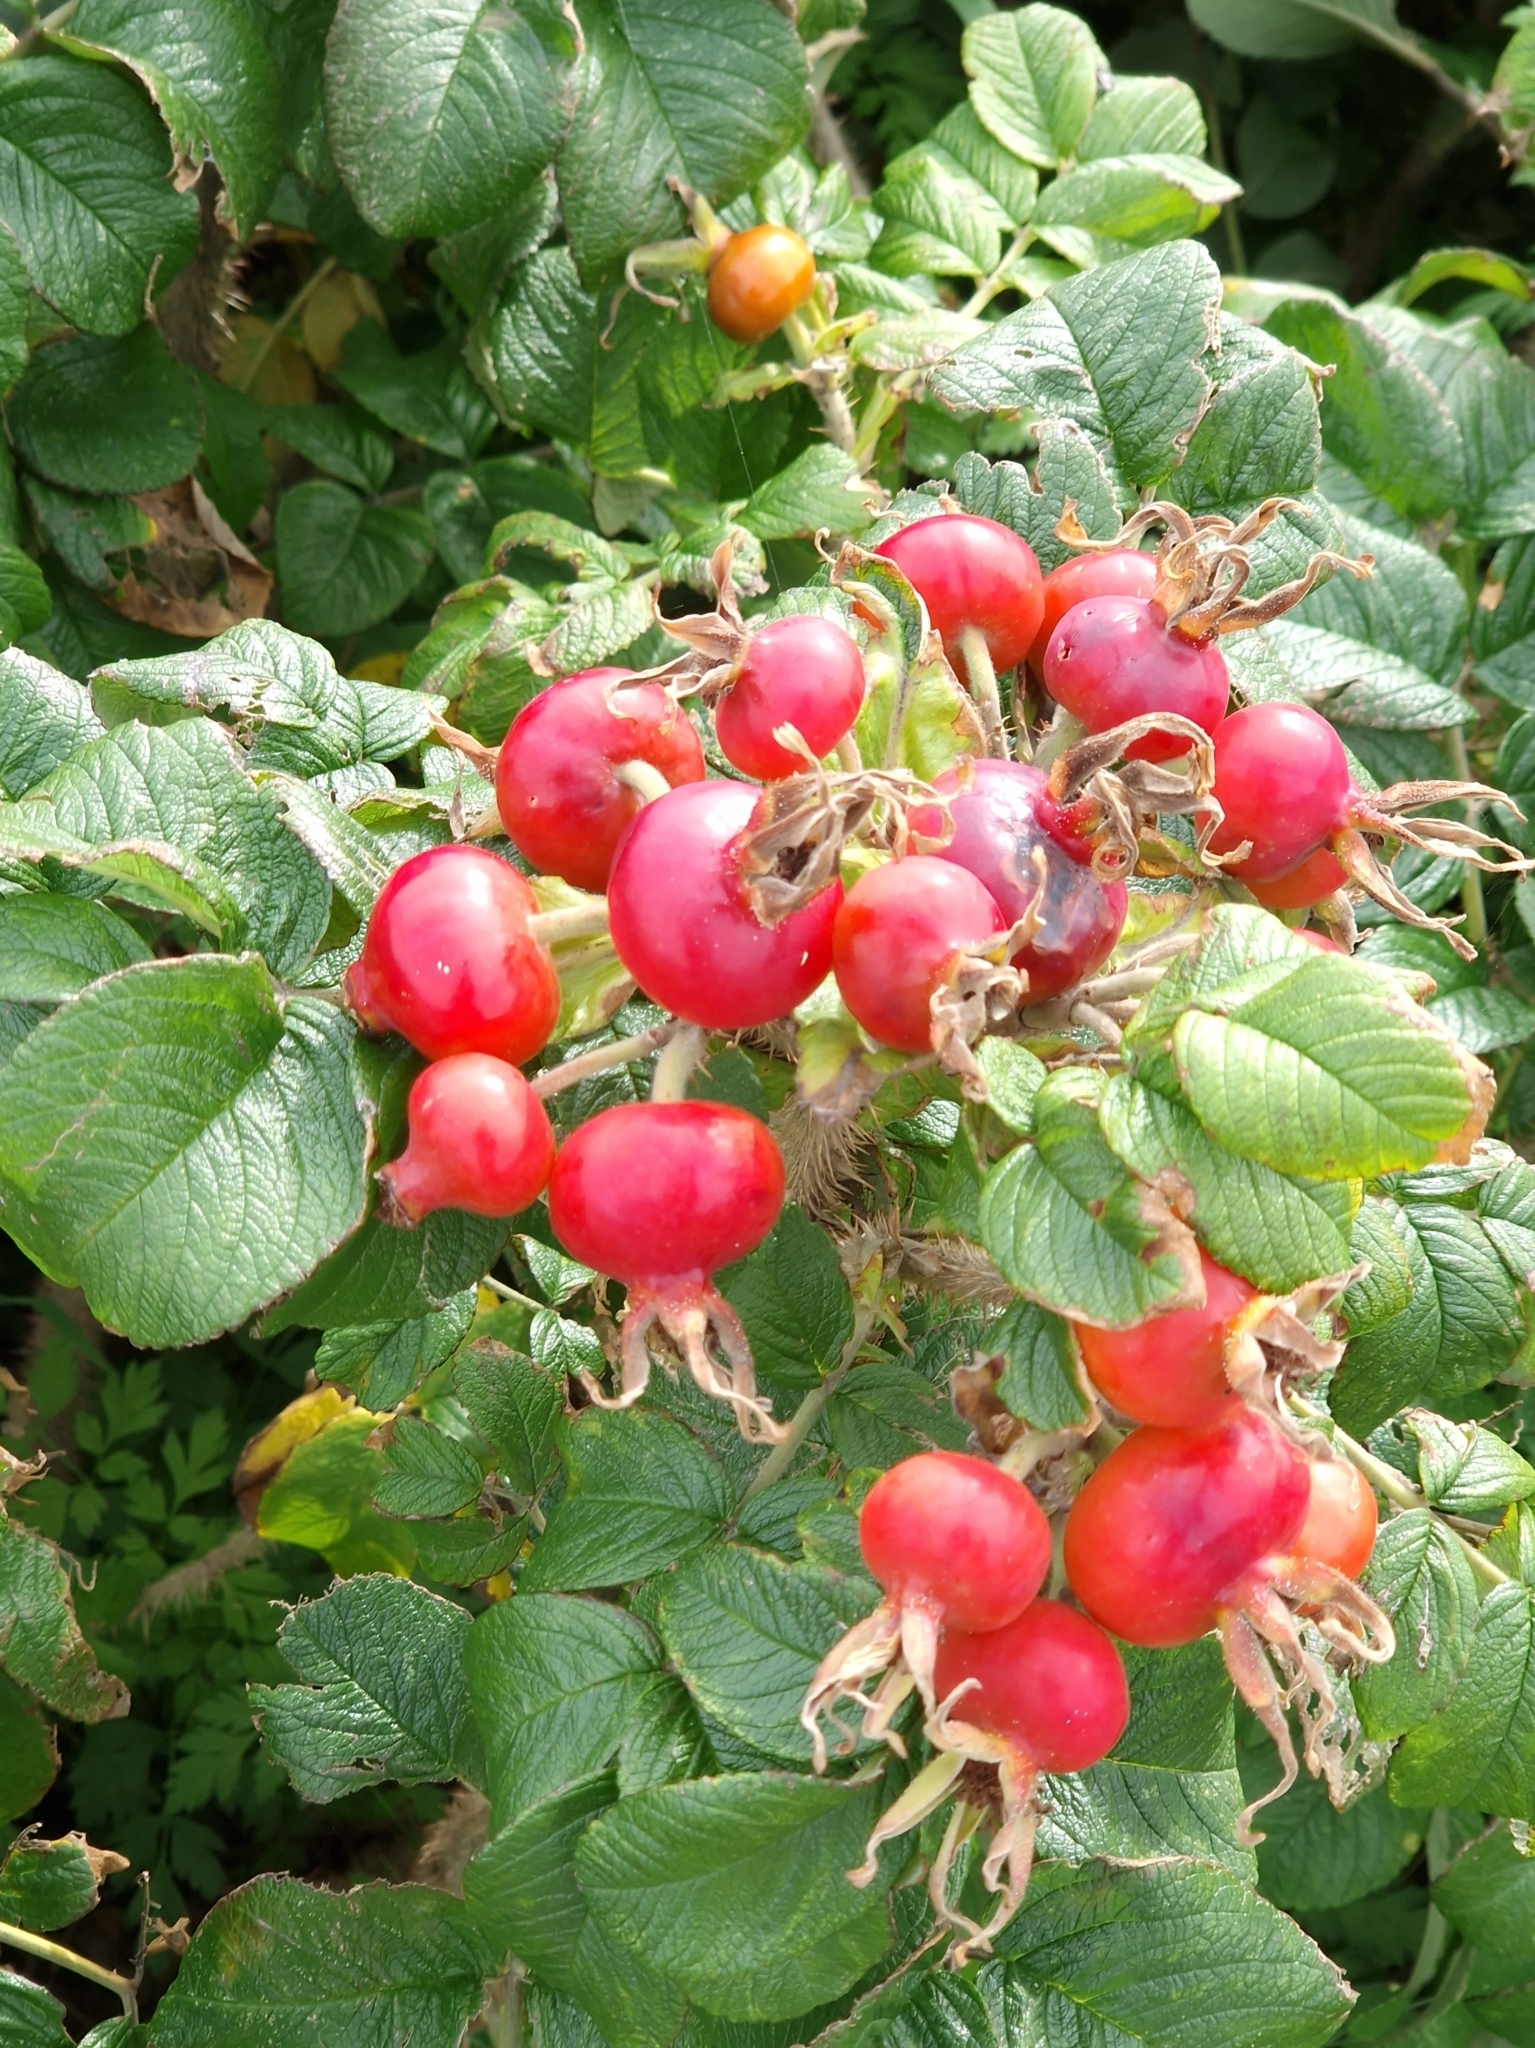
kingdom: Plantae
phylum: Tracheophyta
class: Magnoliopsida
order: Rosales
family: Rosaceae
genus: Rosa
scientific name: Rosa rugosa
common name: Japanese rose
